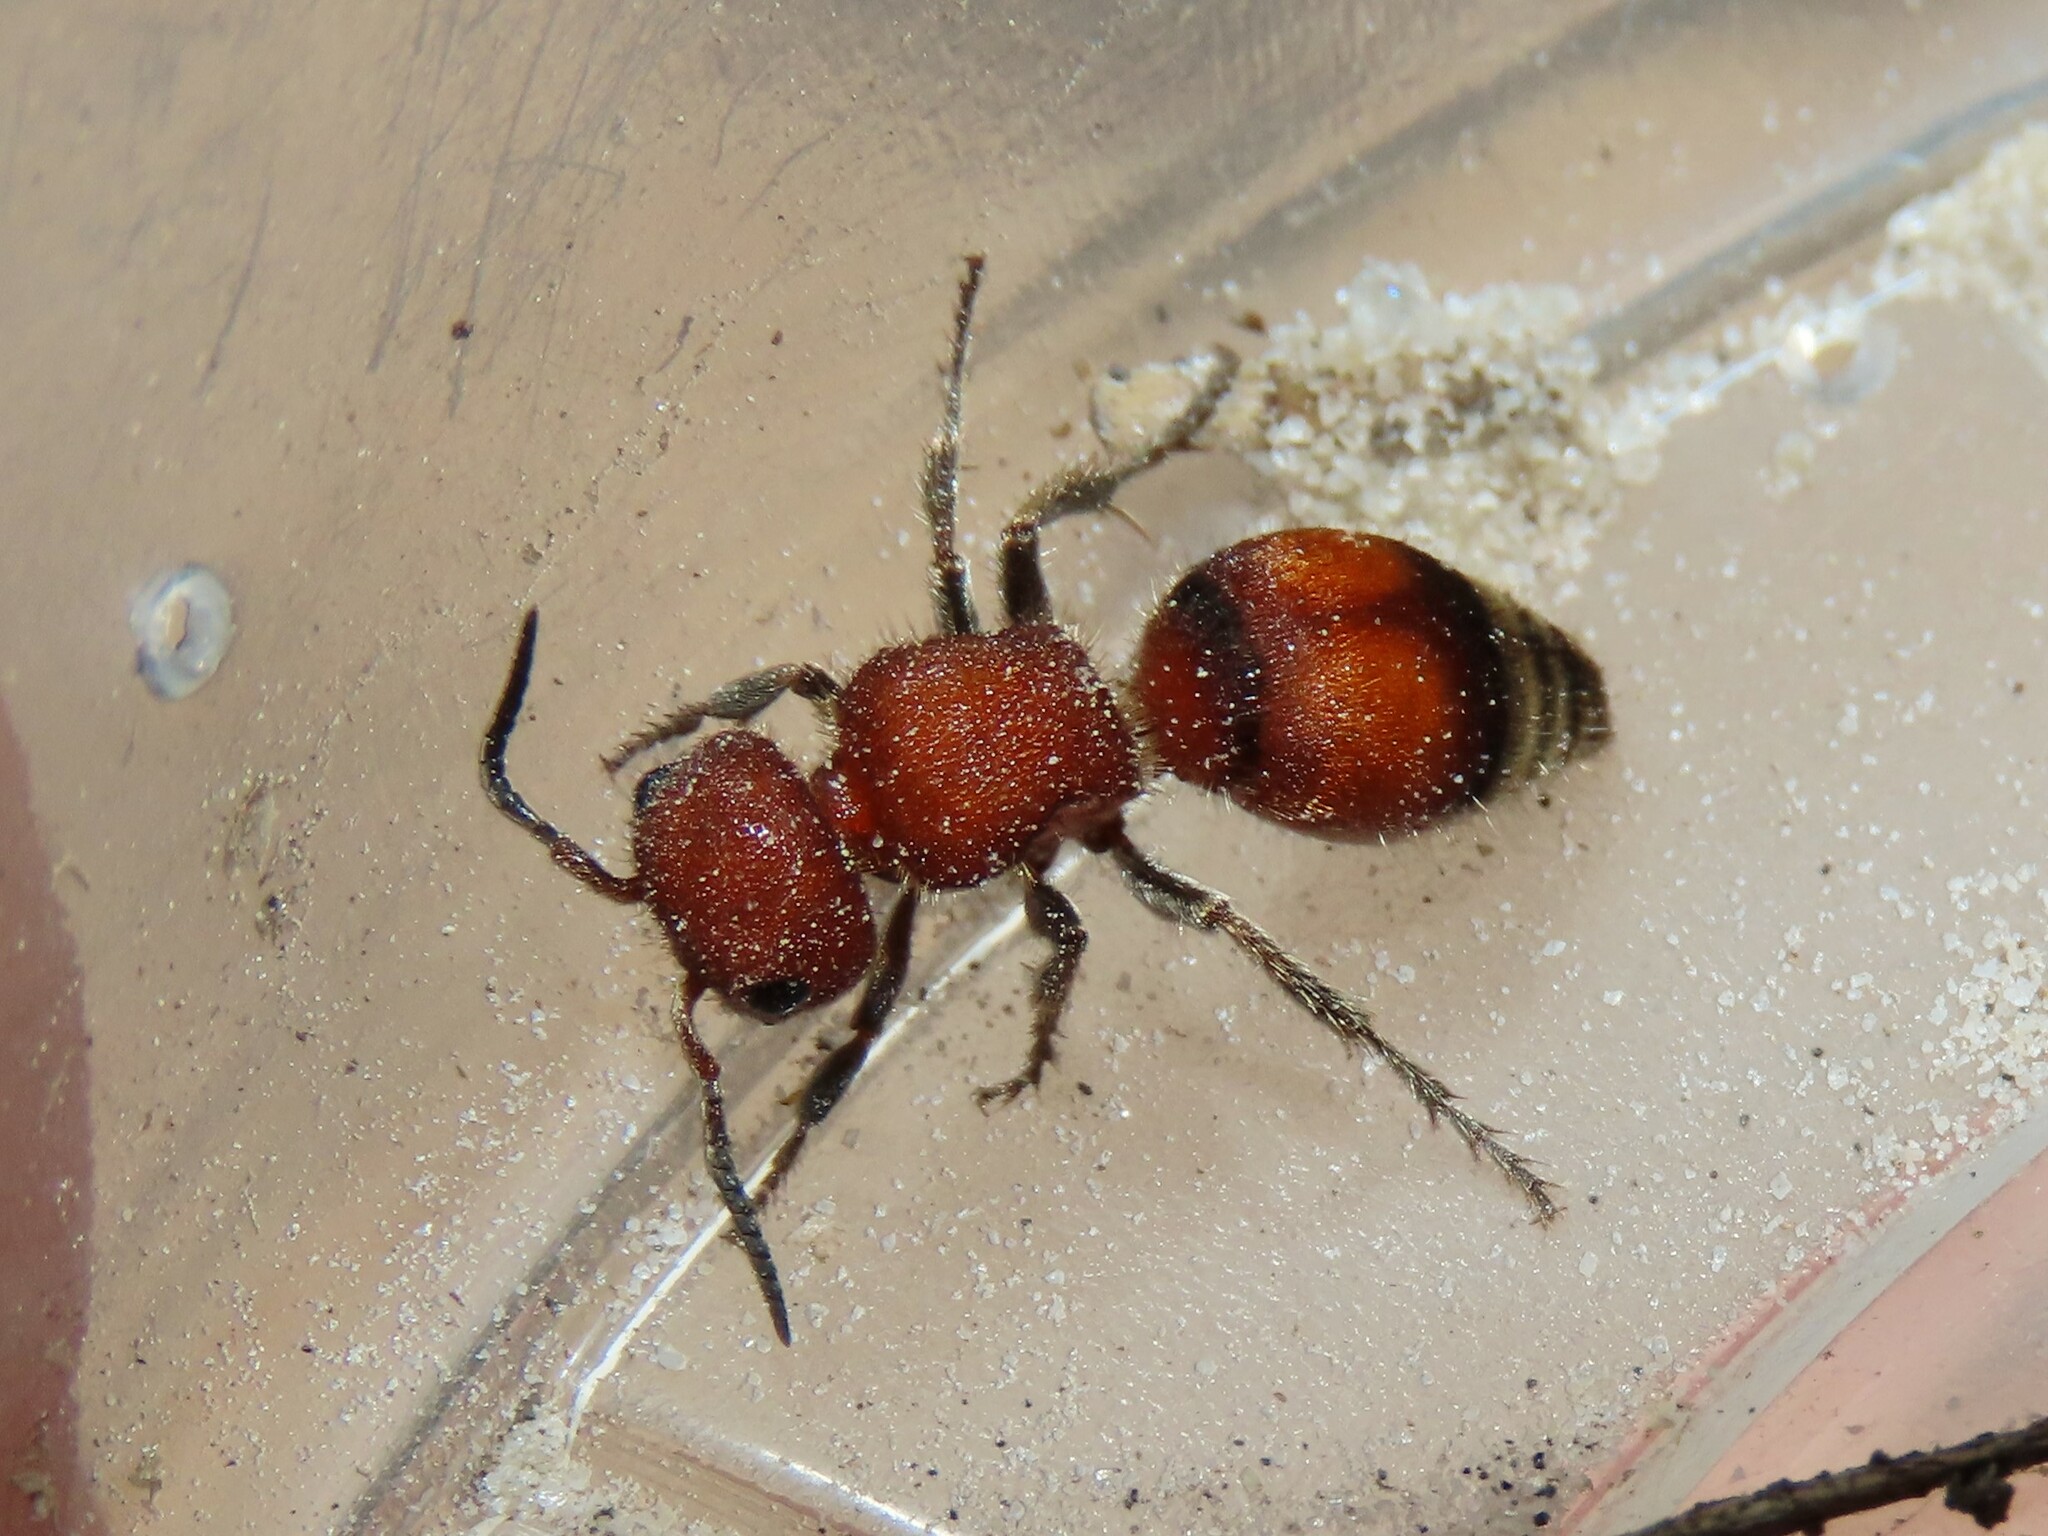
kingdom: Animalia
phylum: Arthropoda
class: Insecta
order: Hymenoptera
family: Mutillidae
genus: Pseudomethoca
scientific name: Pseudomethoca
